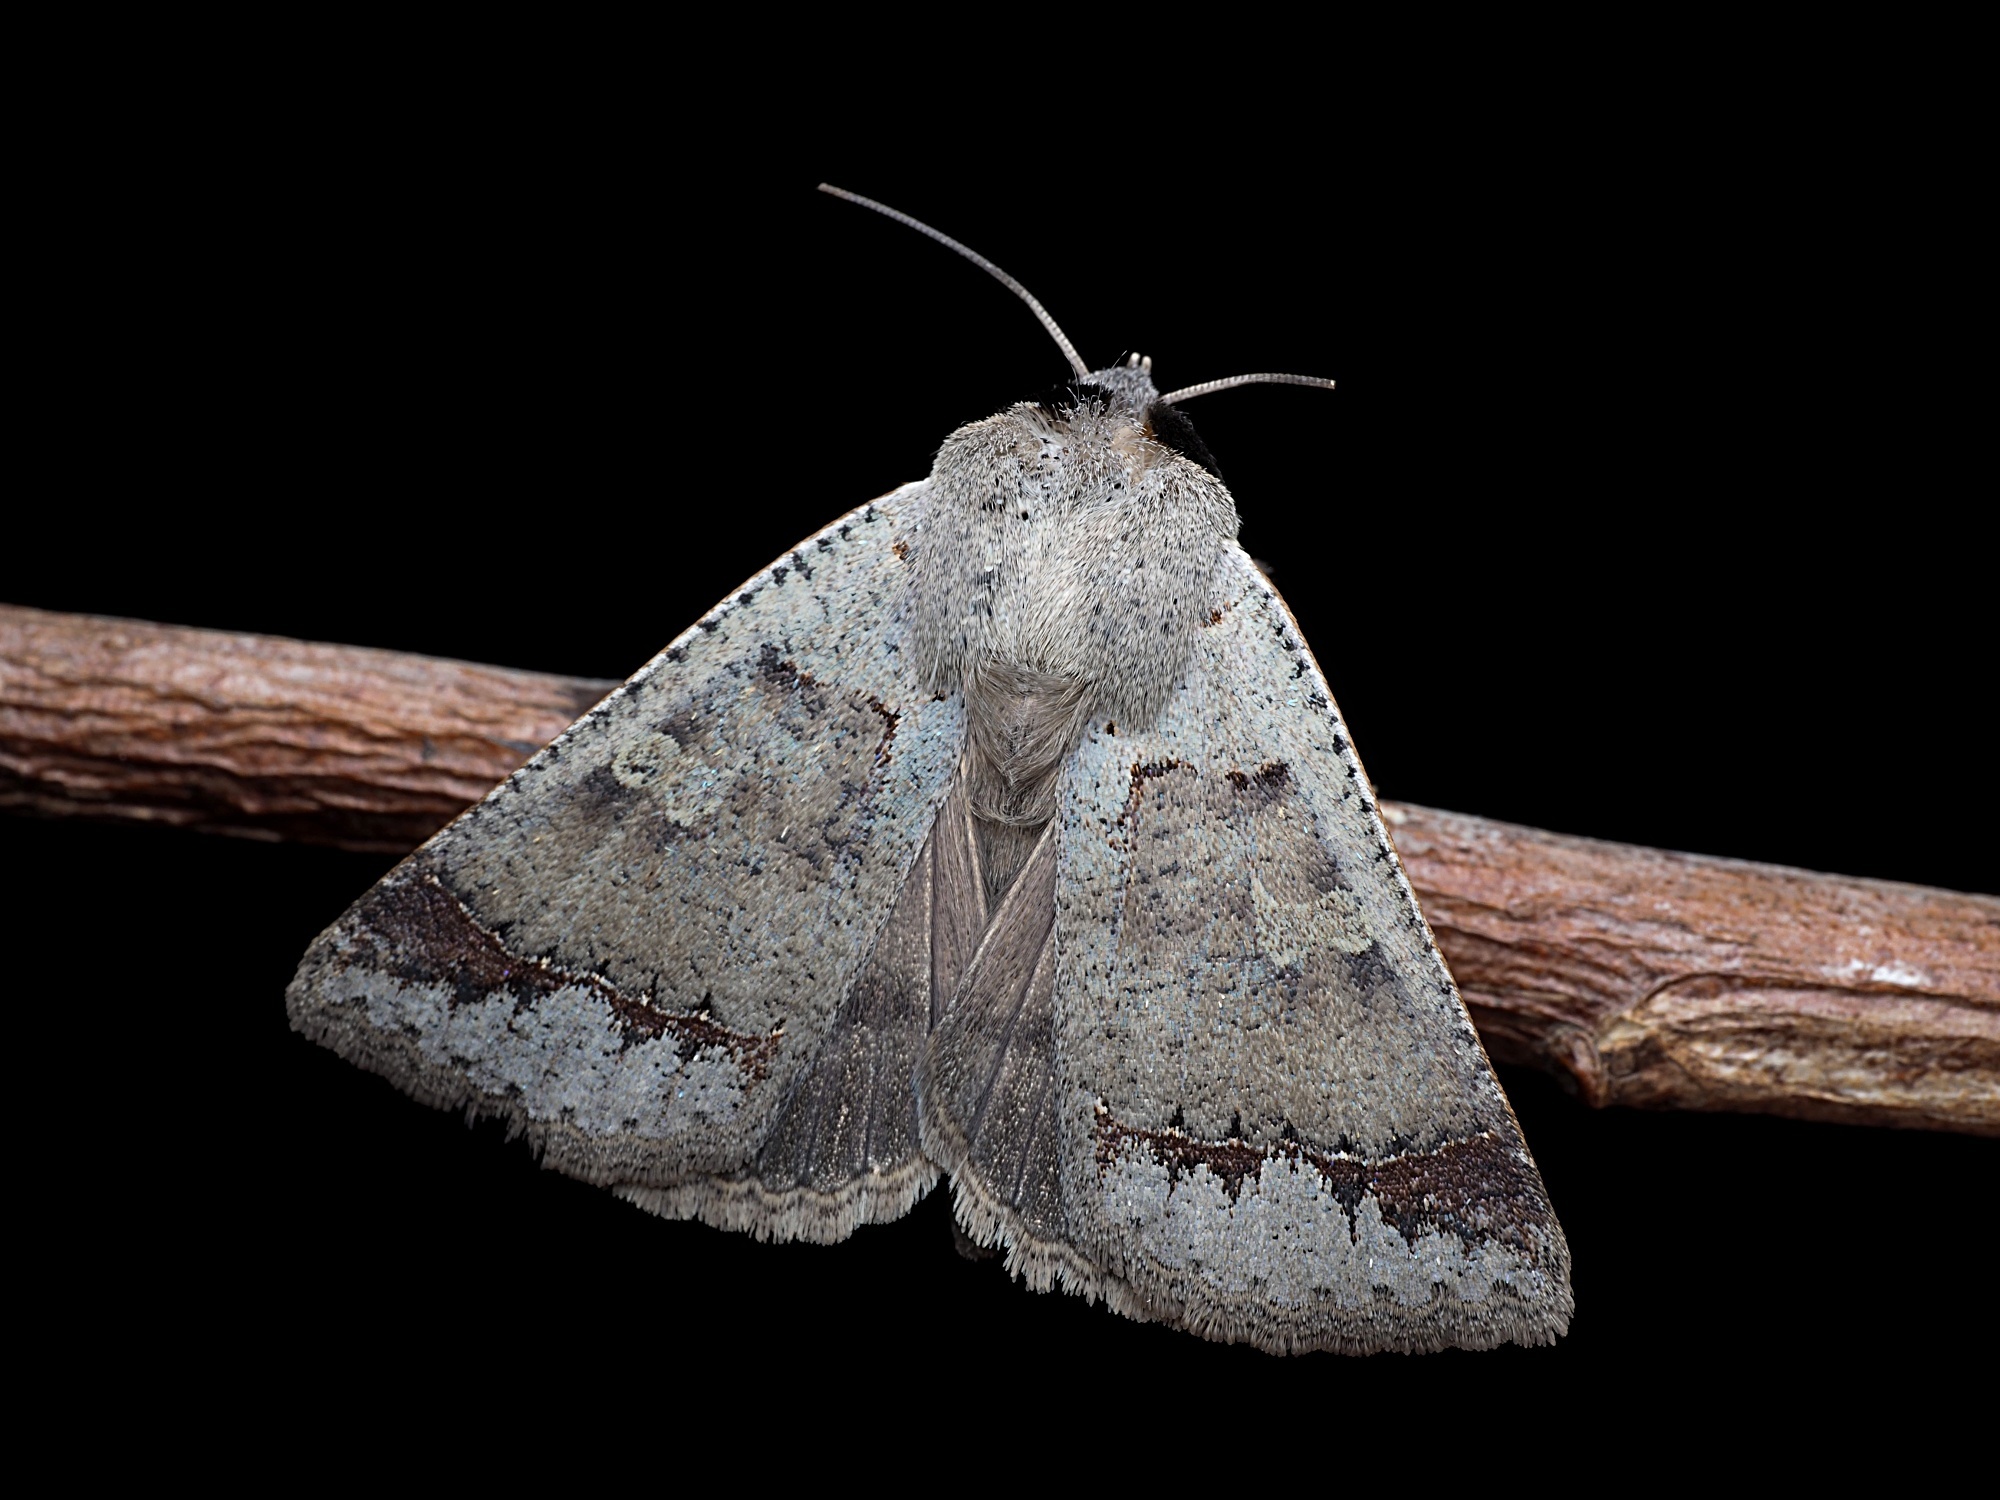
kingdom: Animalia
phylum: Arthropoda
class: Insecta
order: Lepidoptera
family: Erebidae
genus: Pantydia
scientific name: Pantydia sparsa
